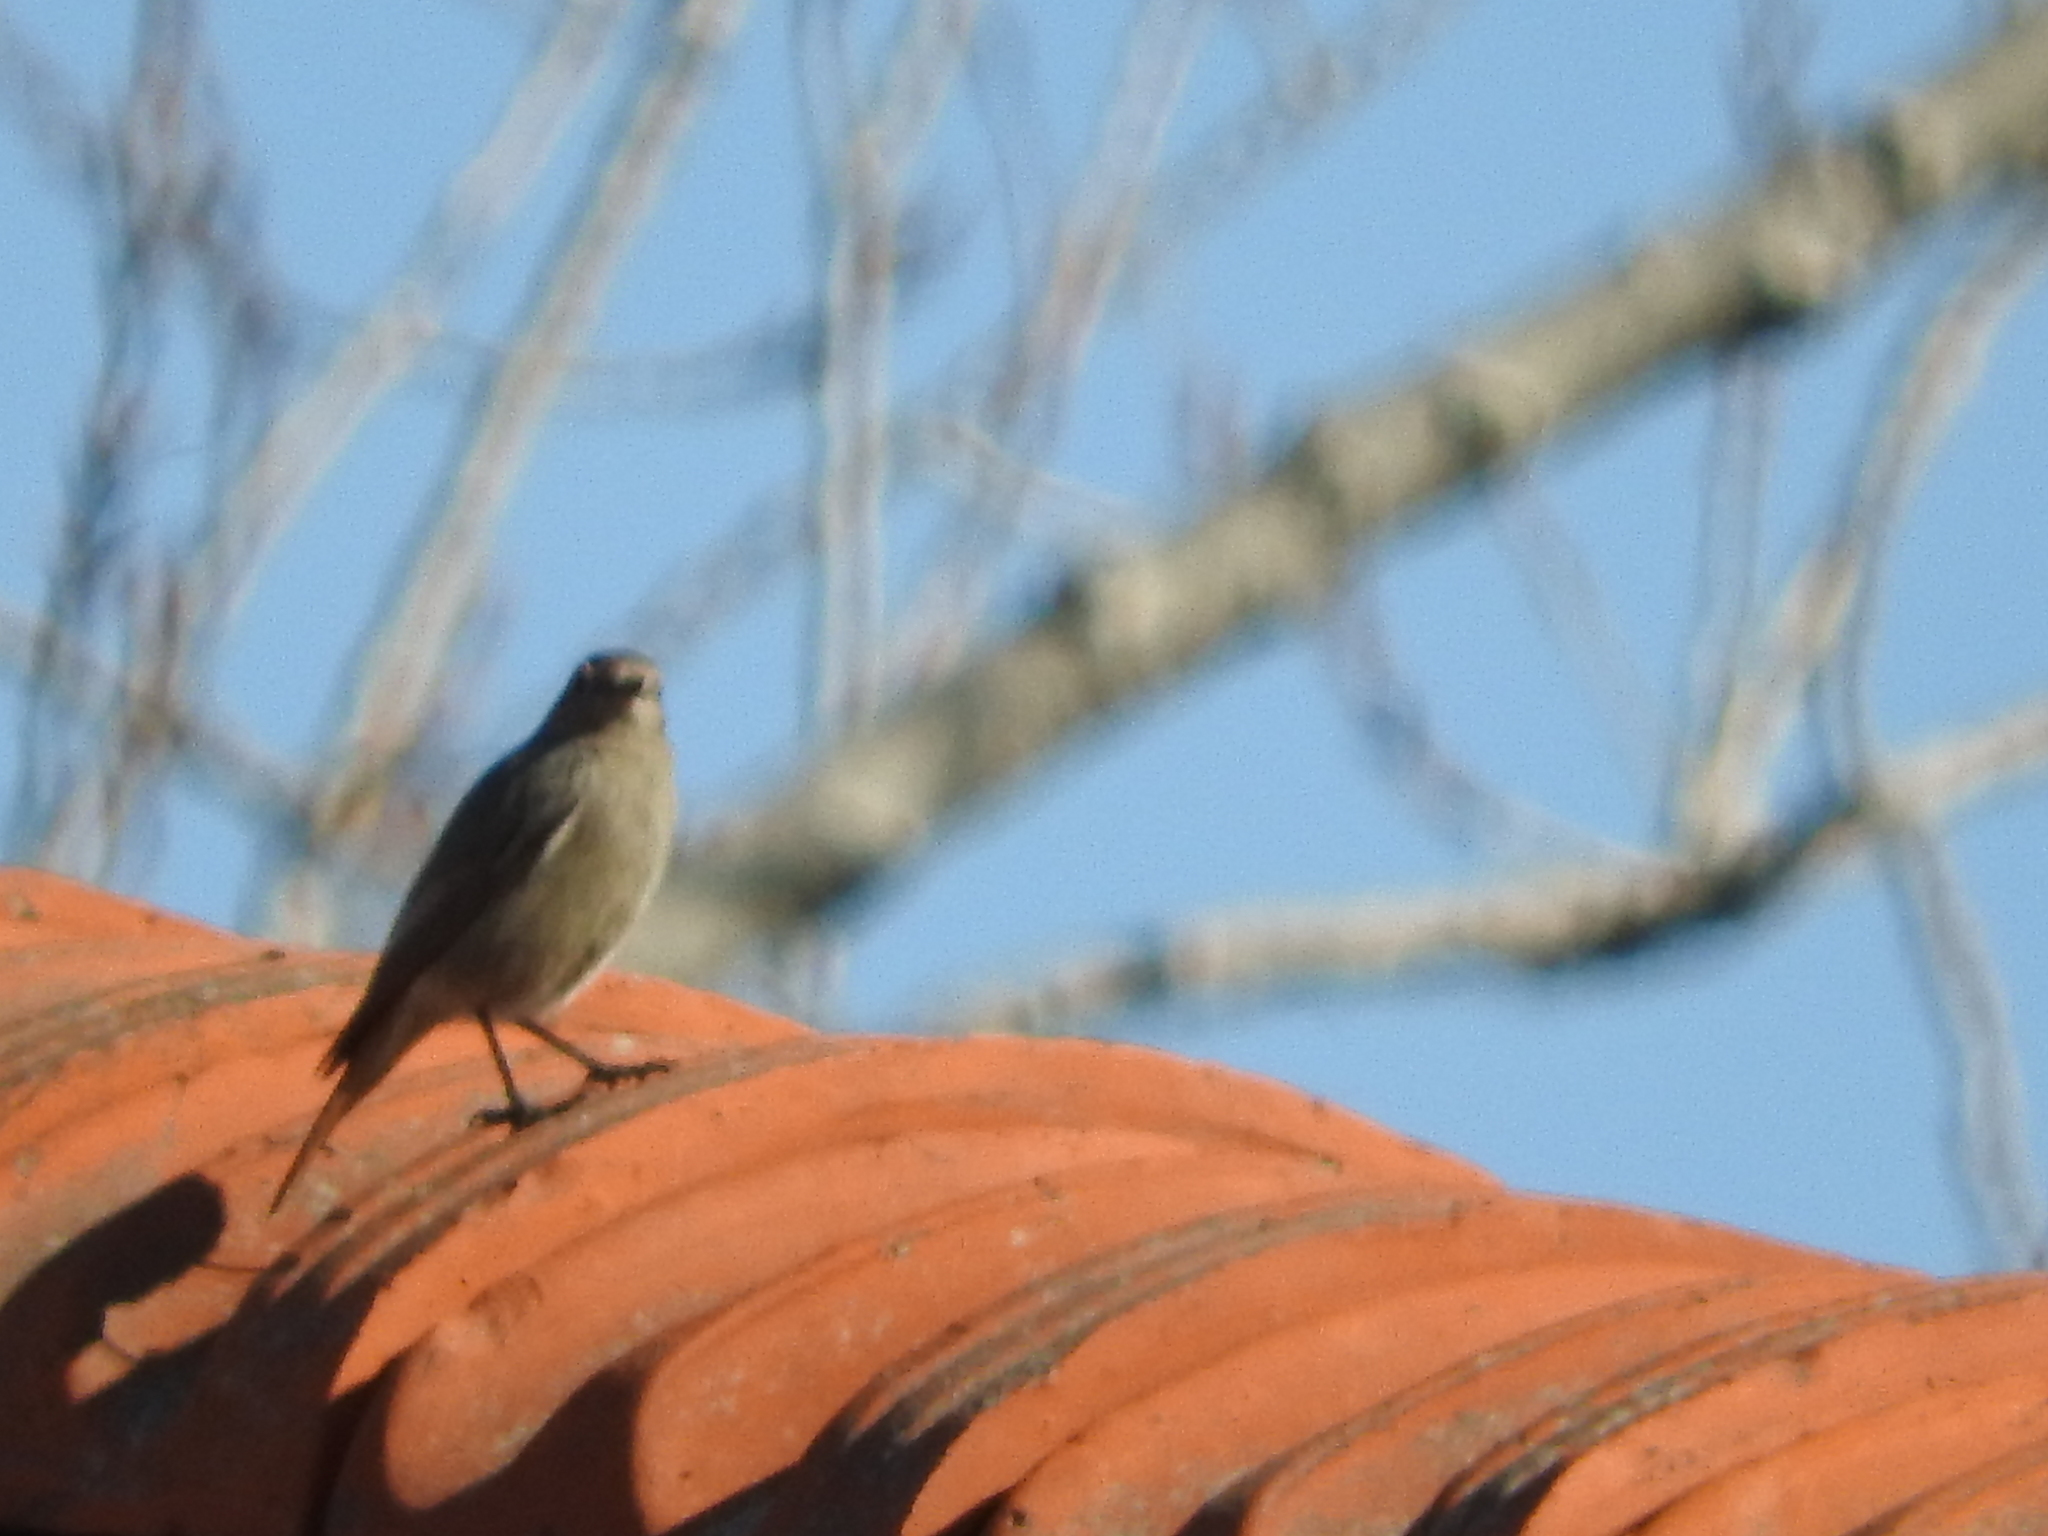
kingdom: Animalia
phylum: Chordata
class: Aves
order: Passeriformes
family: Muscicapidae
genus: Phoenicurus
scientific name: Phoenicurus ochruros
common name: Black redstart
